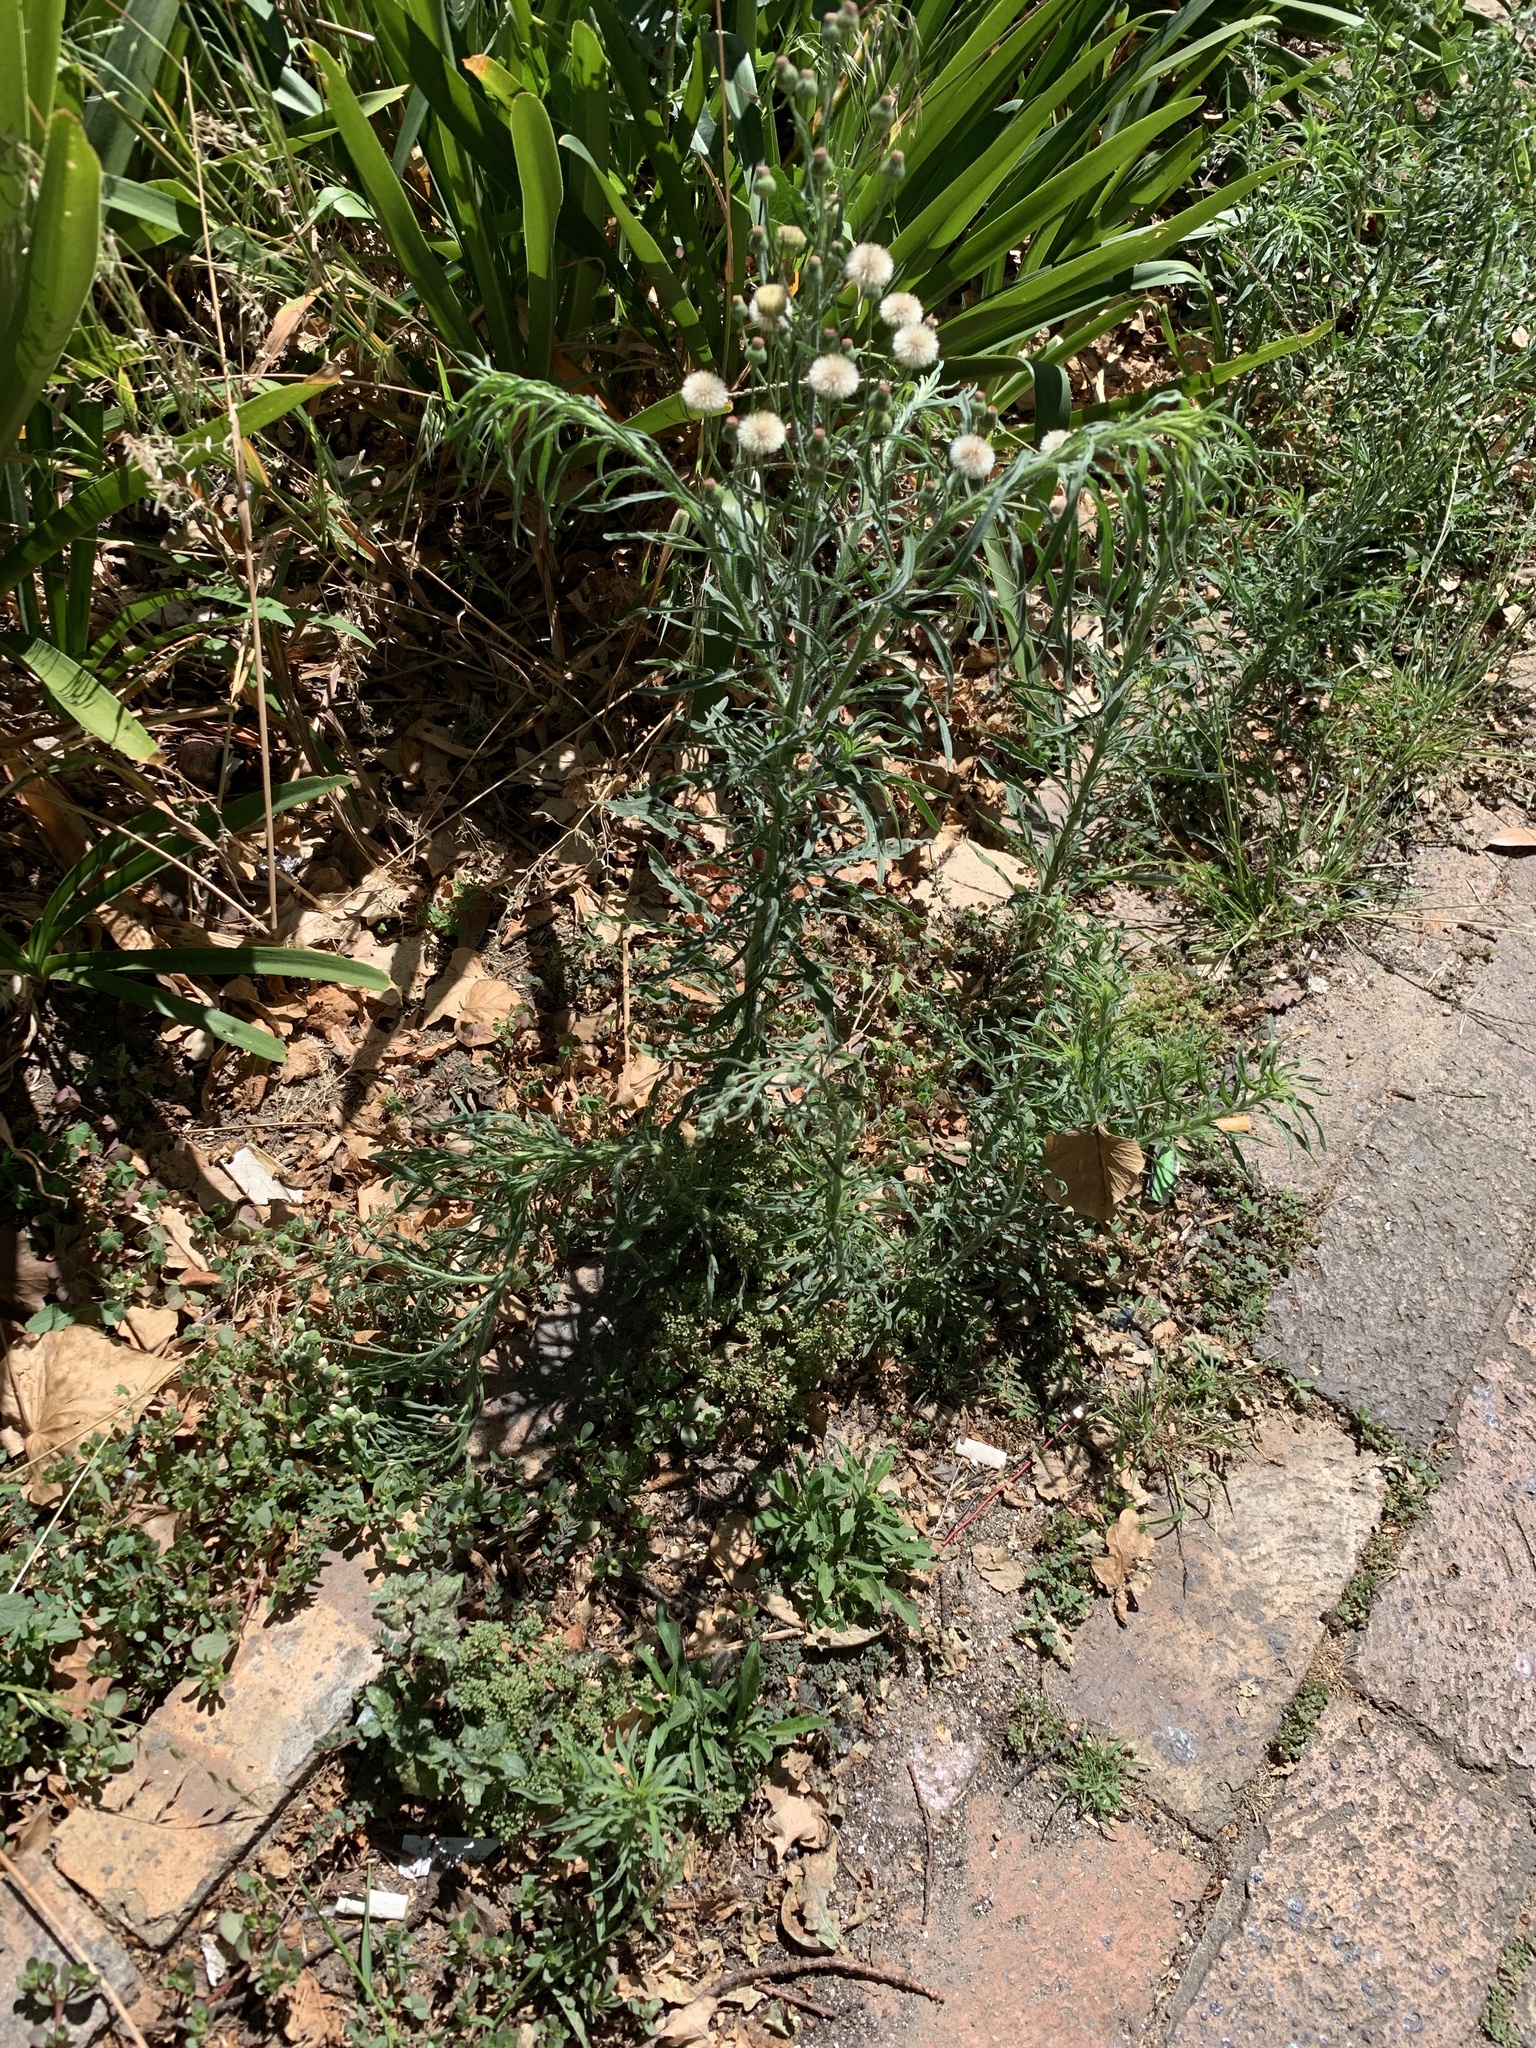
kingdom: Plantae
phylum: Tracheophyta
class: Magnoliopsida
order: Asterales
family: Asteraceae
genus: Erigeron
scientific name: Erigeron bonariensis
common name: Argentine fleabane
